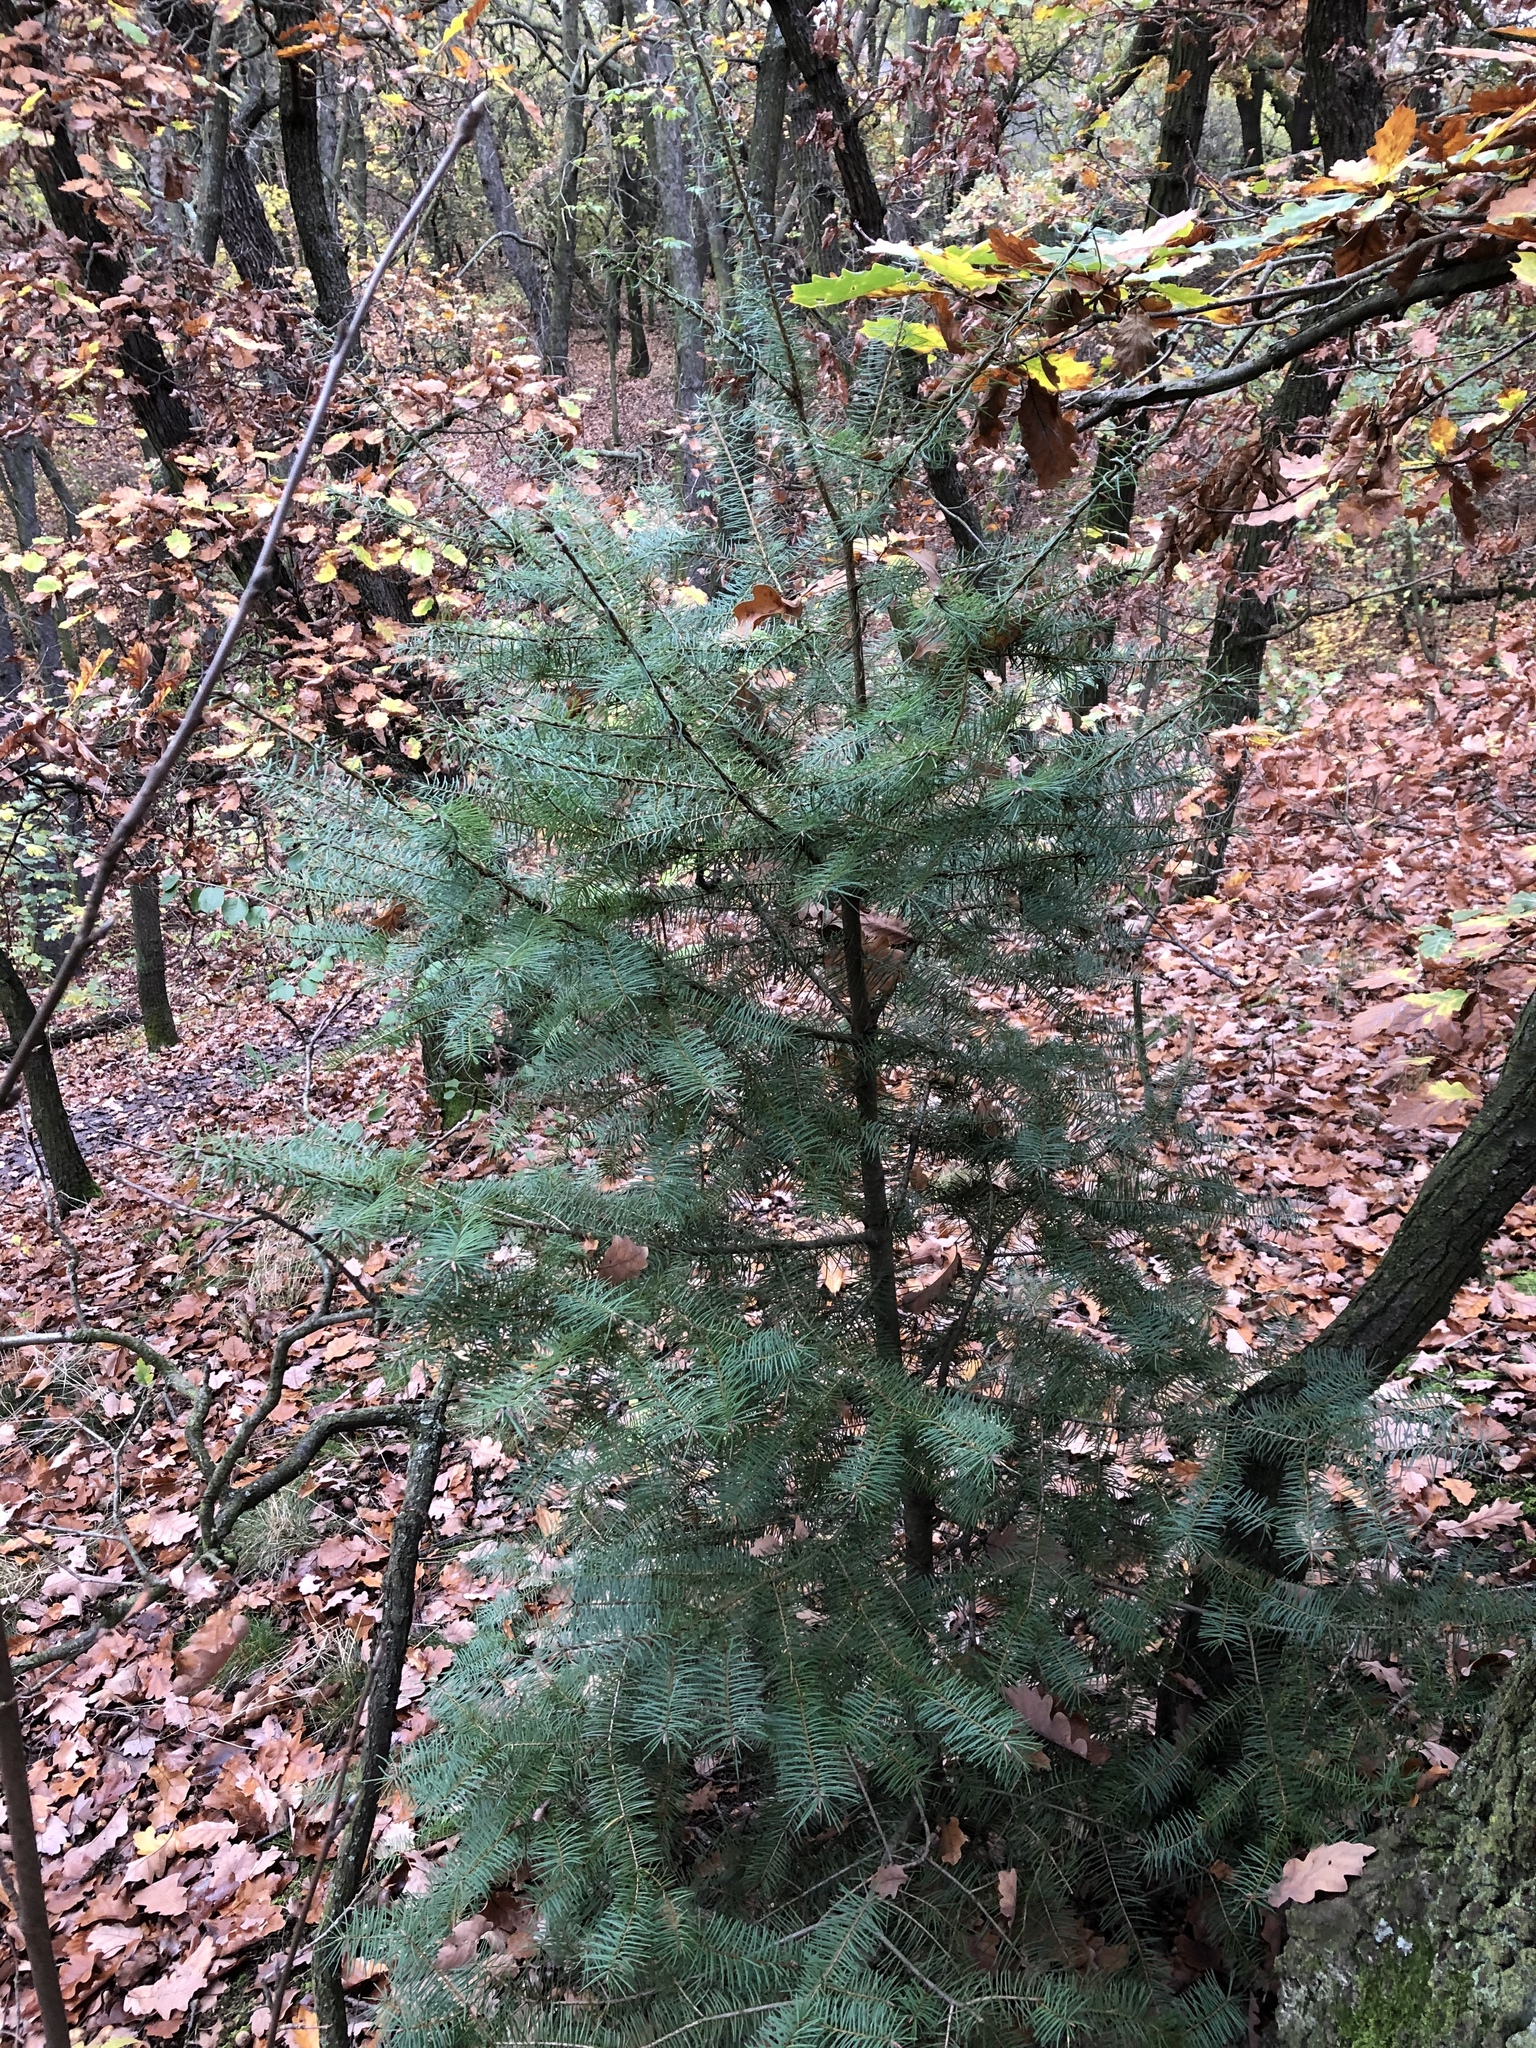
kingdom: Plantae
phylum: Tracheophyta
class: Pinopsida
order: Pinales
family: Pinaceae
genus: Pseudotsuga
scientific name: Pseudotsuga menziesii
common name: Douglas fir
